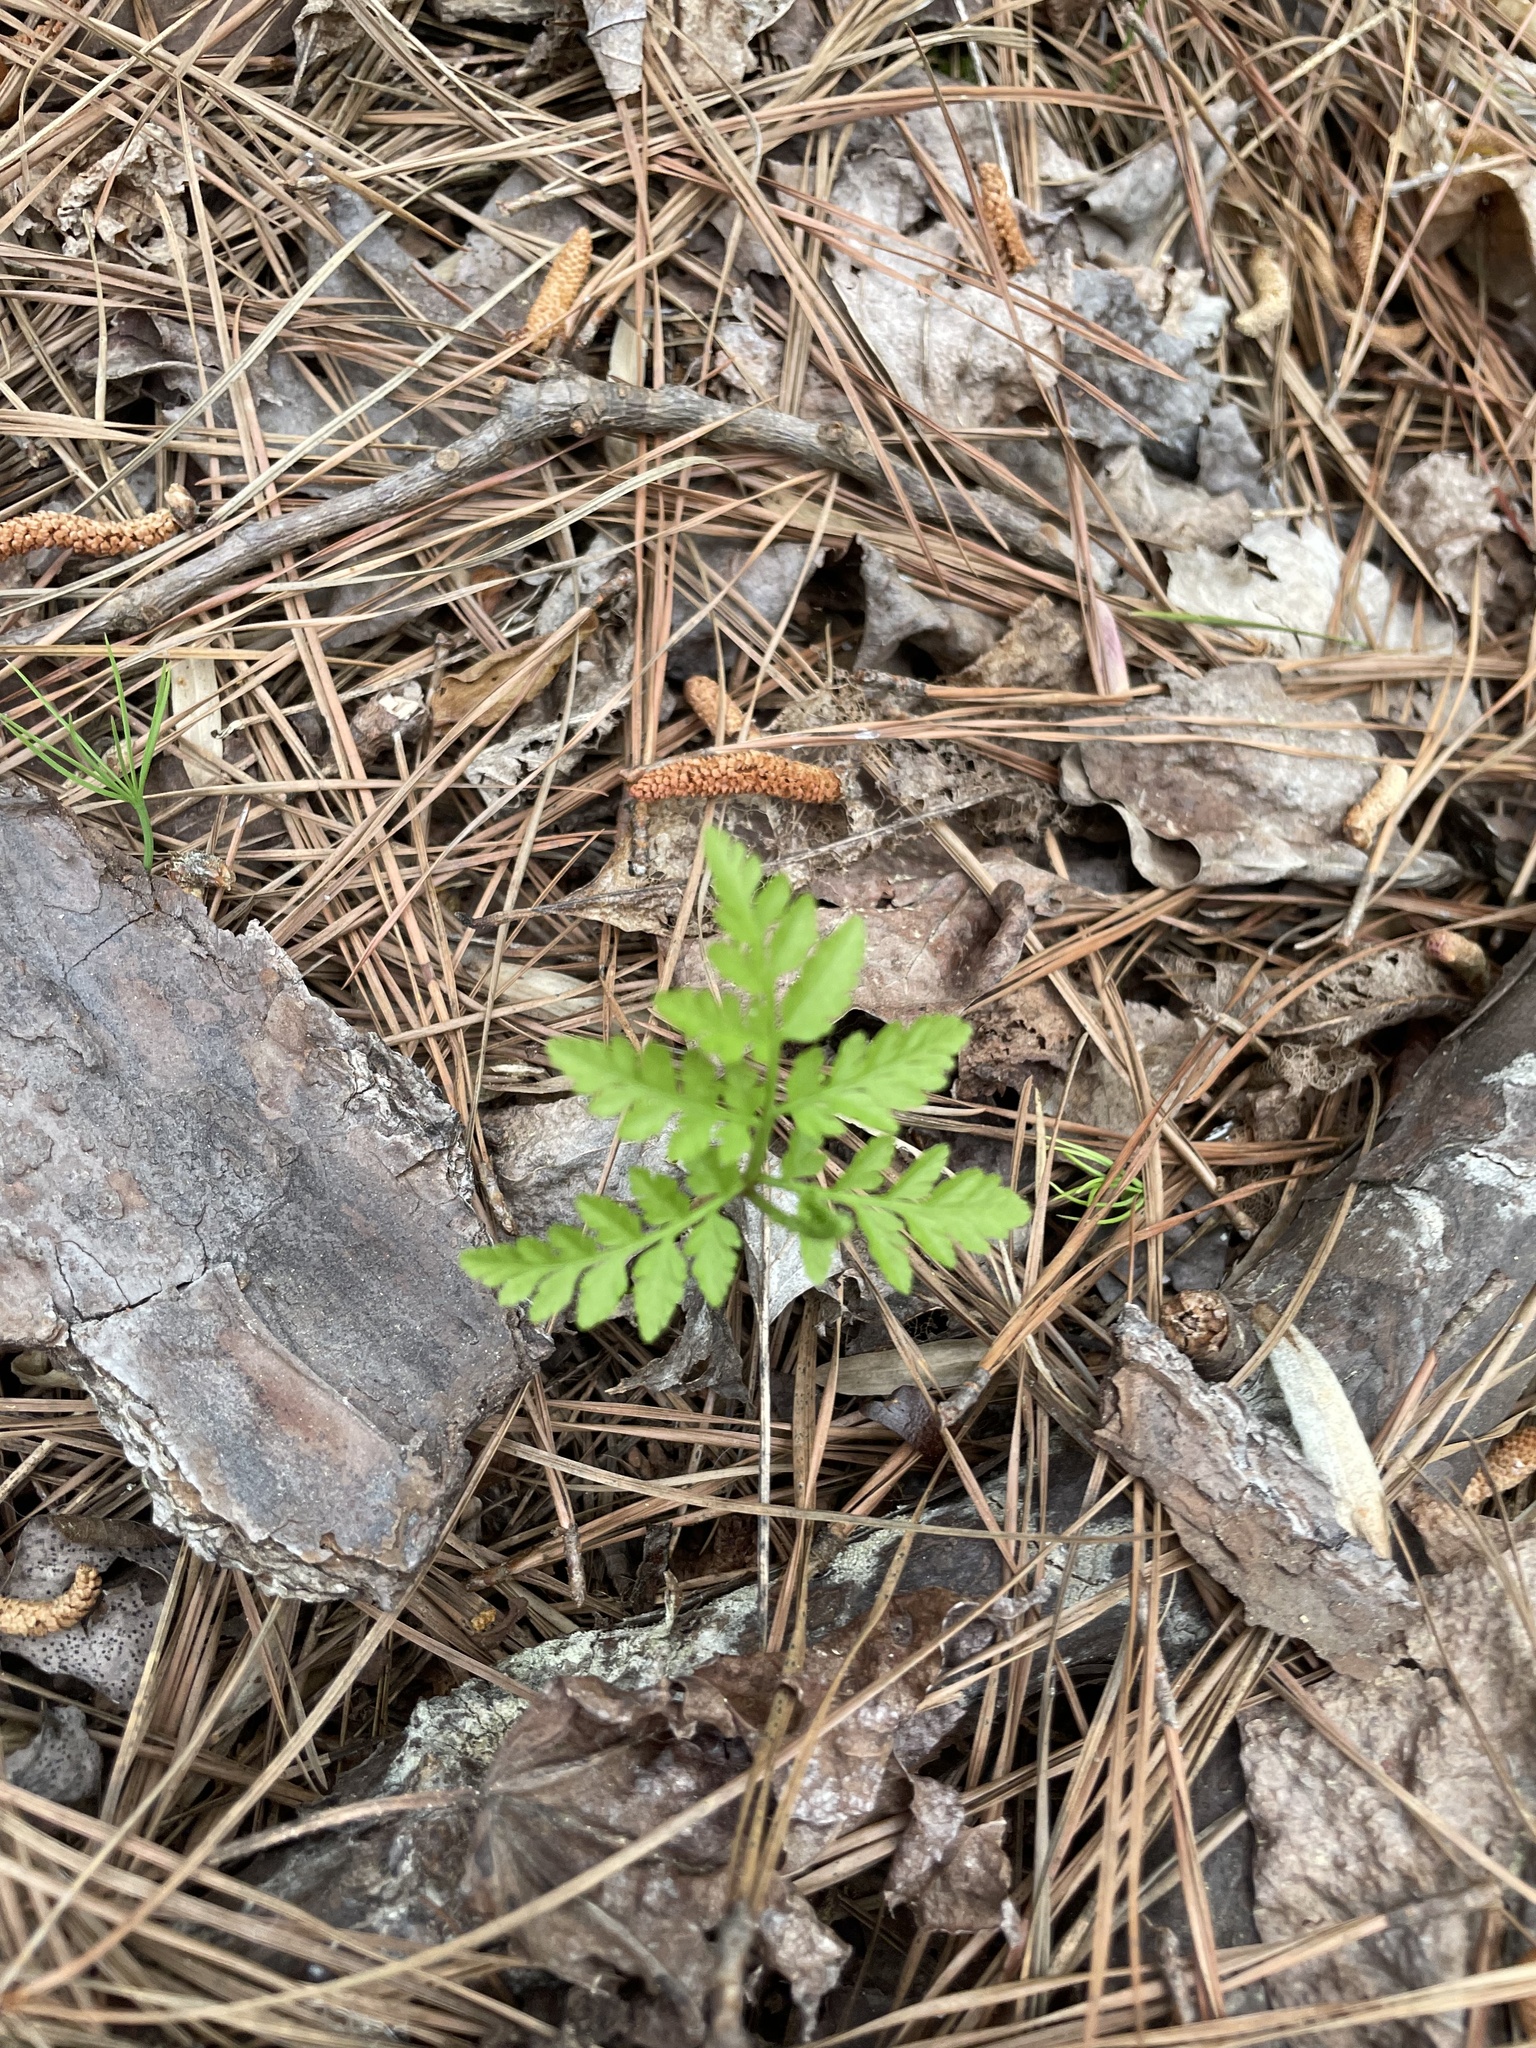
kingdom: Plantae
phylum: Tracheophyta
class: Polypodiopsida
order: Ophioglossales
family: Ophioglossaceae
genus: Botrypus
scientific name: Botrypus virginianus
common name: Common grapefern
